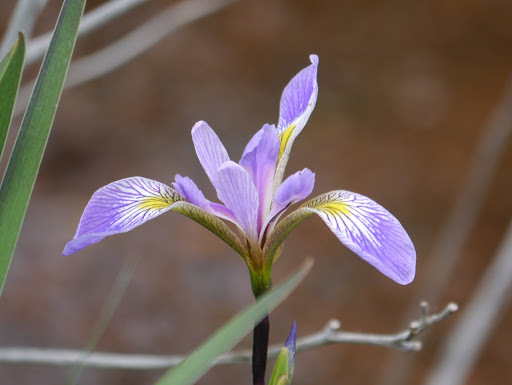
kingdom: Plantae
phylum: Tracheophyta
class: Liliopsida
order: Asparagales
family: Iridaceae
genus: Iris
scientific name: Iris versicolor
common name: Purple iris
